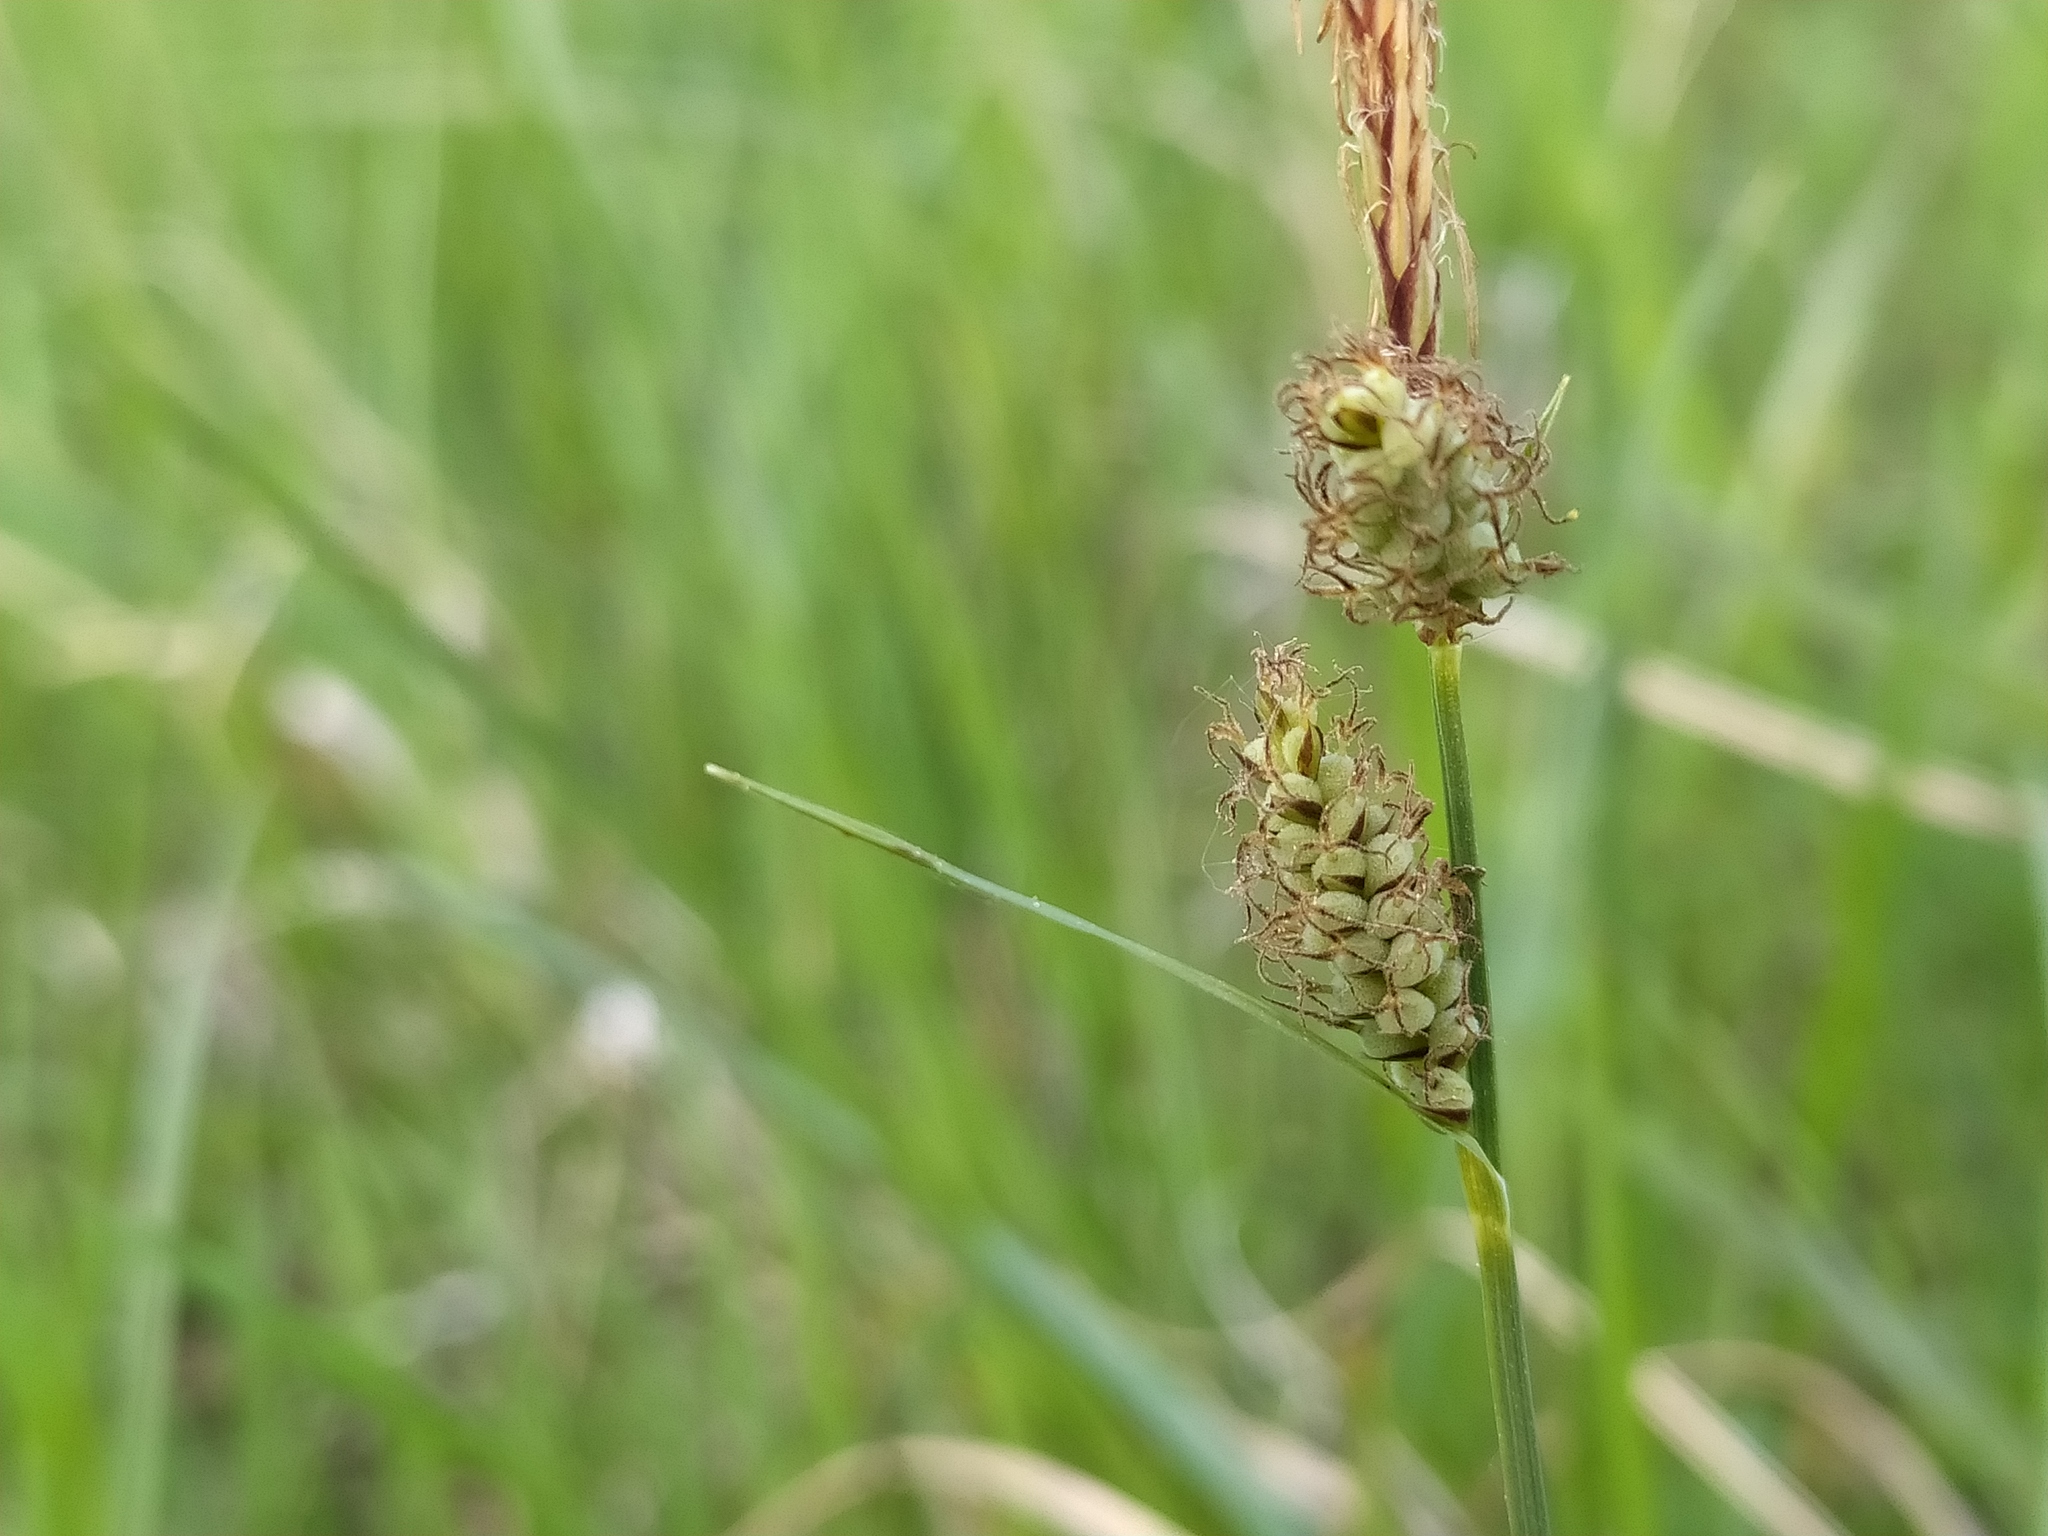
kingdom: Plantae
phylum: Tracheophyta
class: Liliopsida
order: Poales
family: Cyperaceae
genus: Carex
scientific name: Carex tomentosa
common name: Downy-fruited sedge
